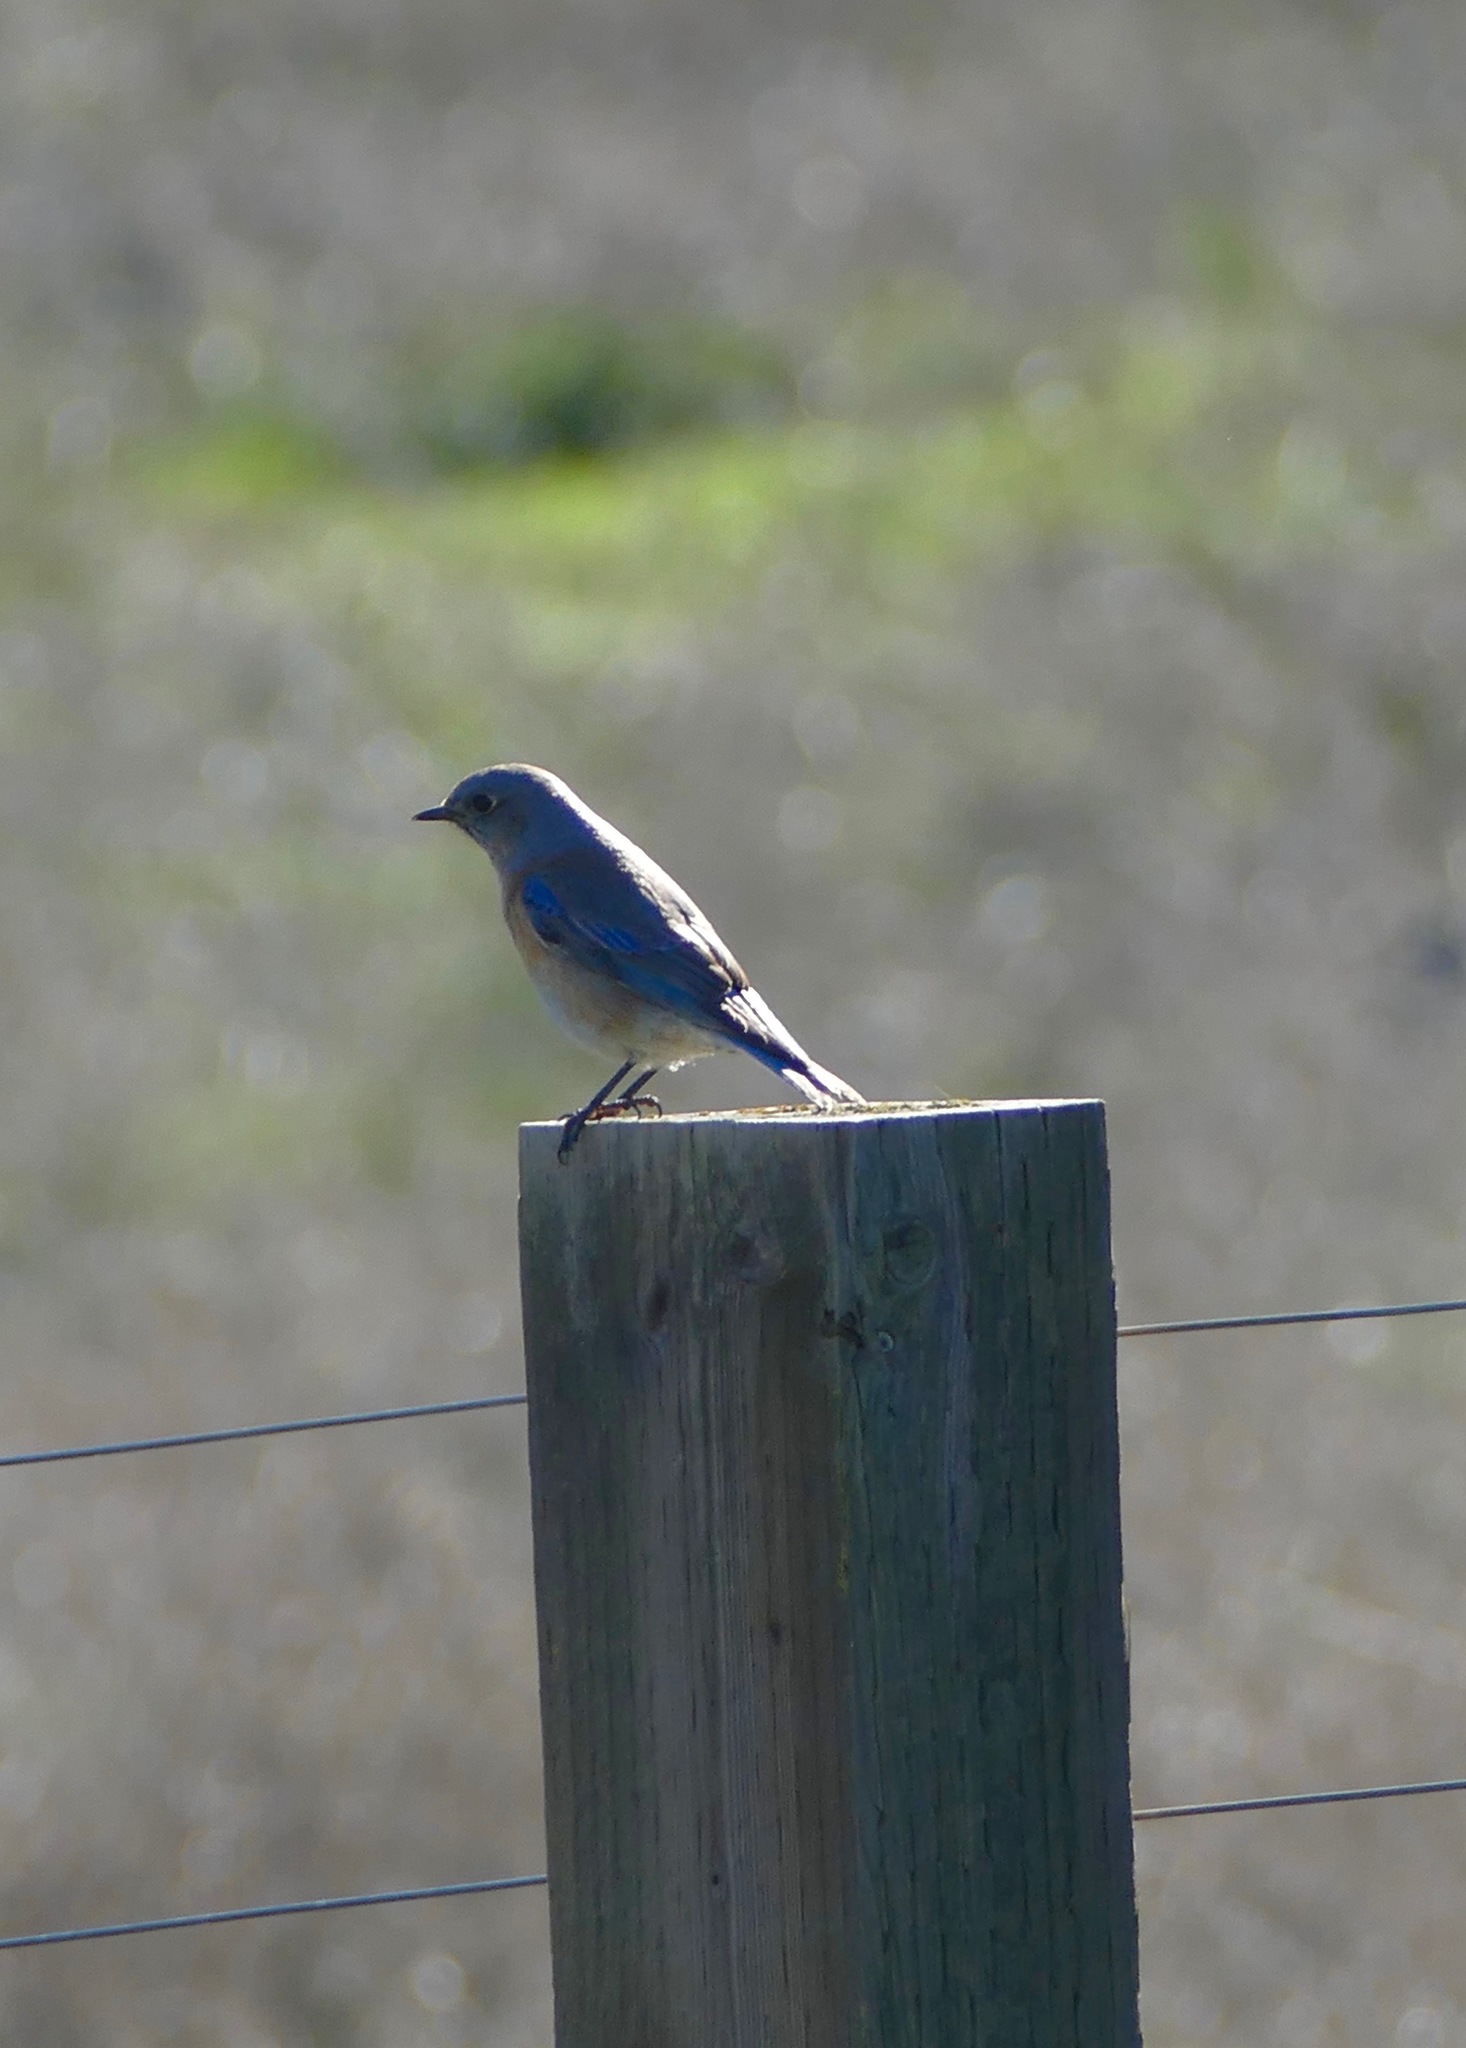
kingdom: Animalia
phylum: Chordata
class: Aves
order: Passeriformes
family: Turdidae
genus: Sialia
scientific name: Sialia mexicana
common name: Western bluebird
